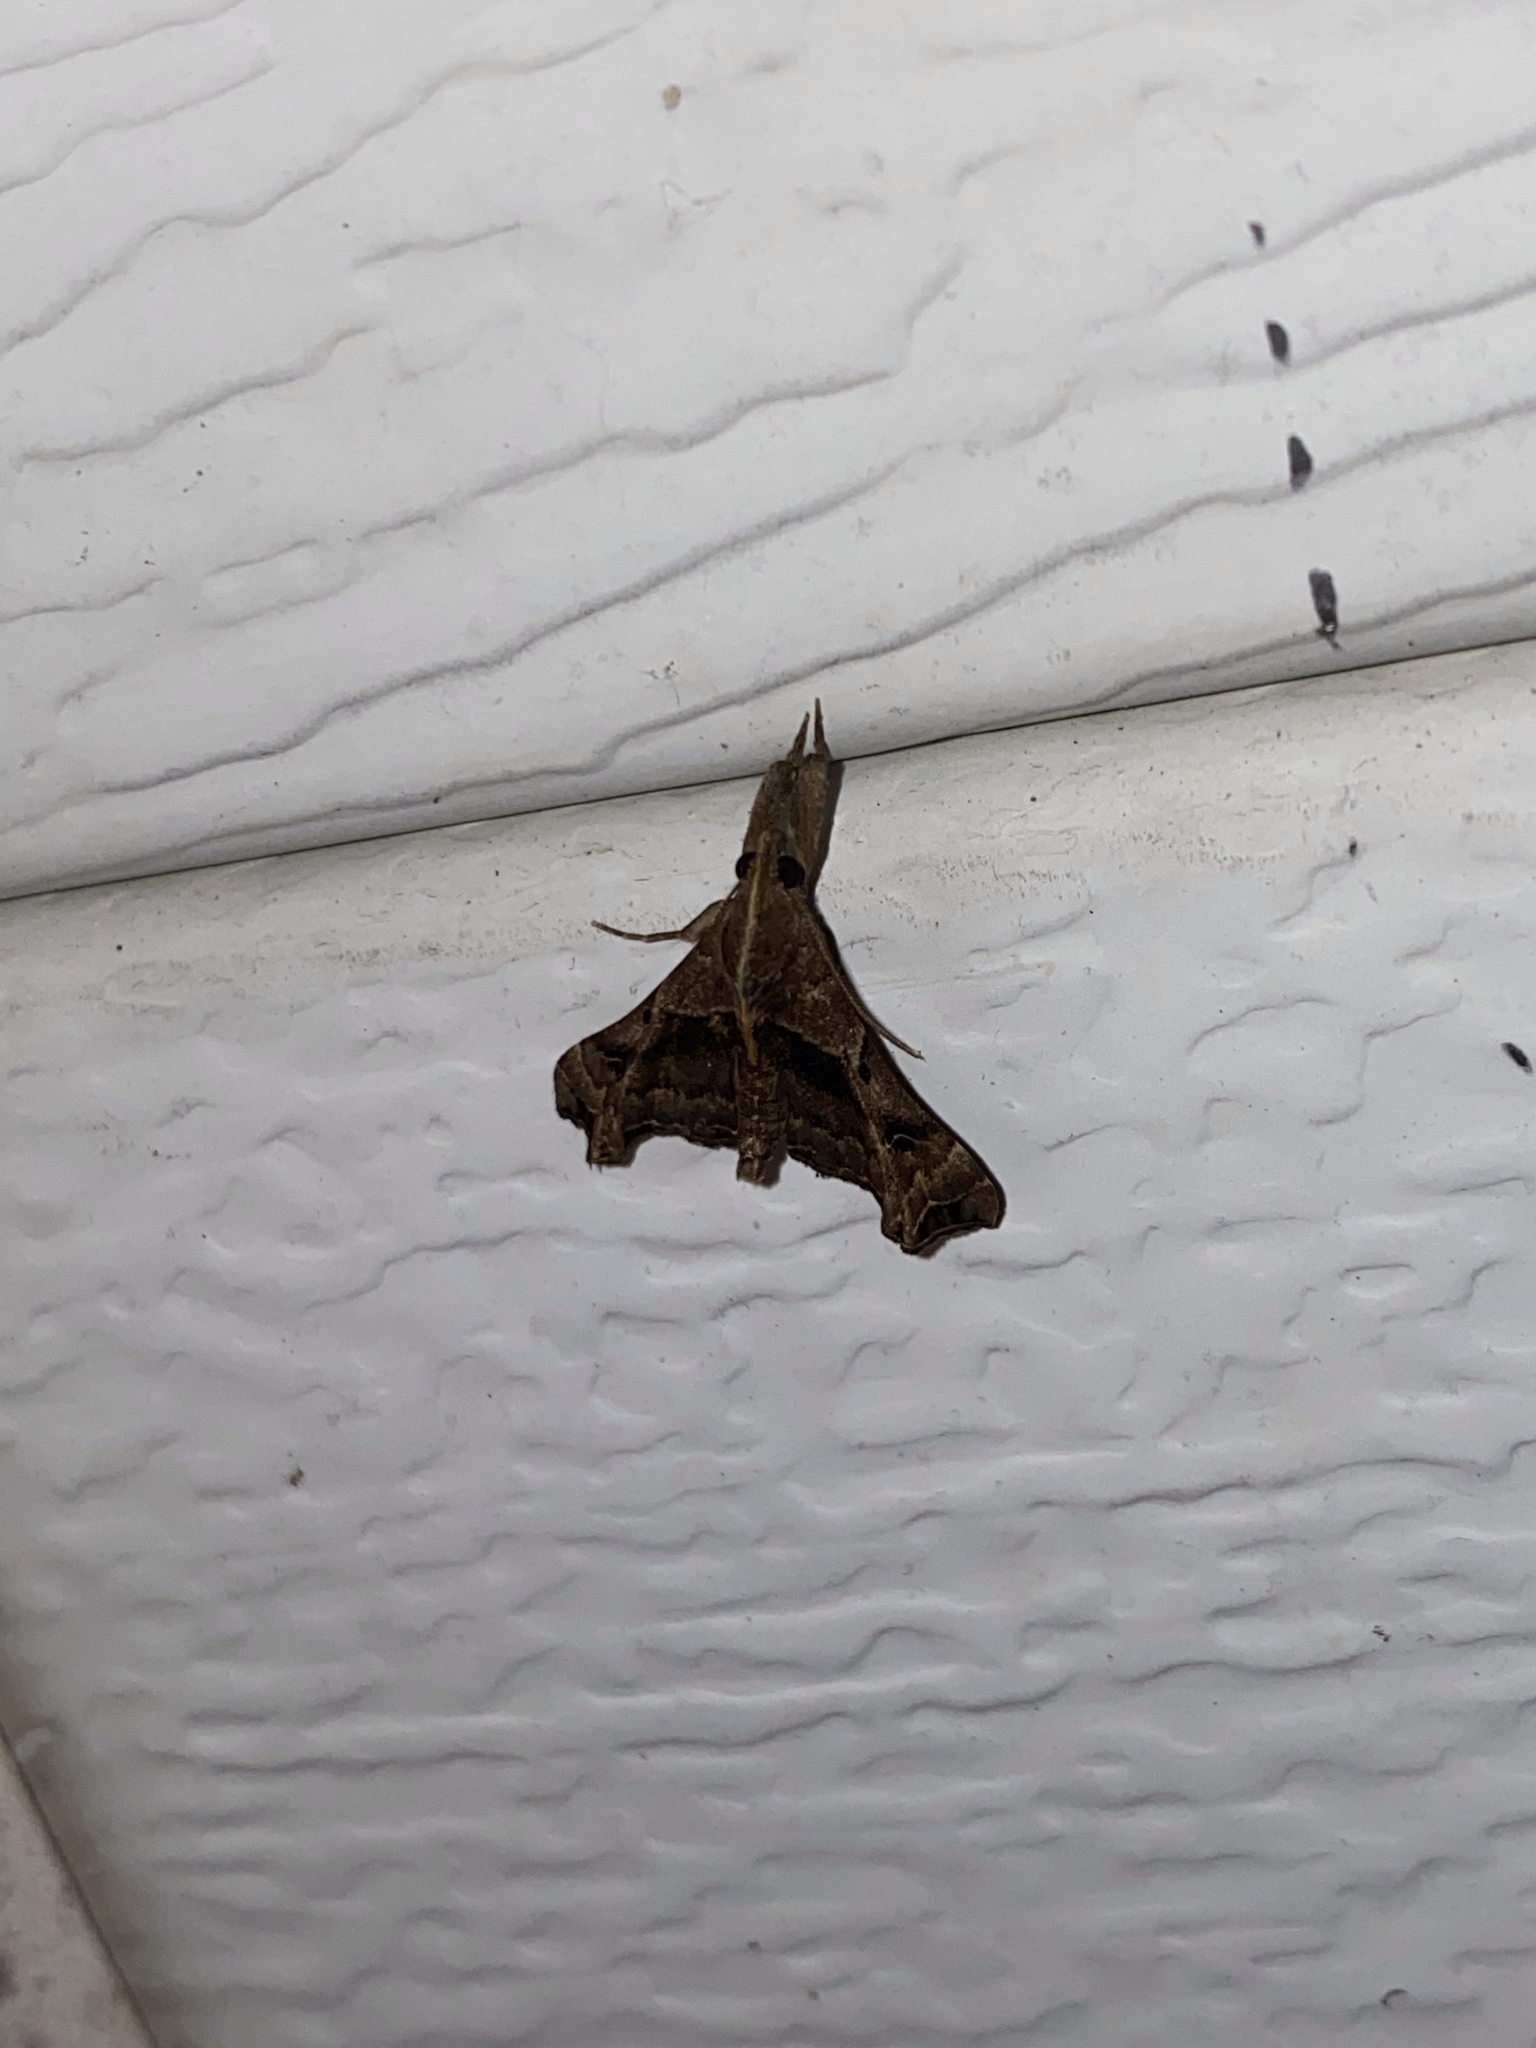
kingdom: Animalia
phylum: Arthropoda
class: Insecta
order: Lepidoptera
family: Erebidae
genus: Palthis
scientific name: Palthis asopialis
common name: Faint-spotted palthis moth
